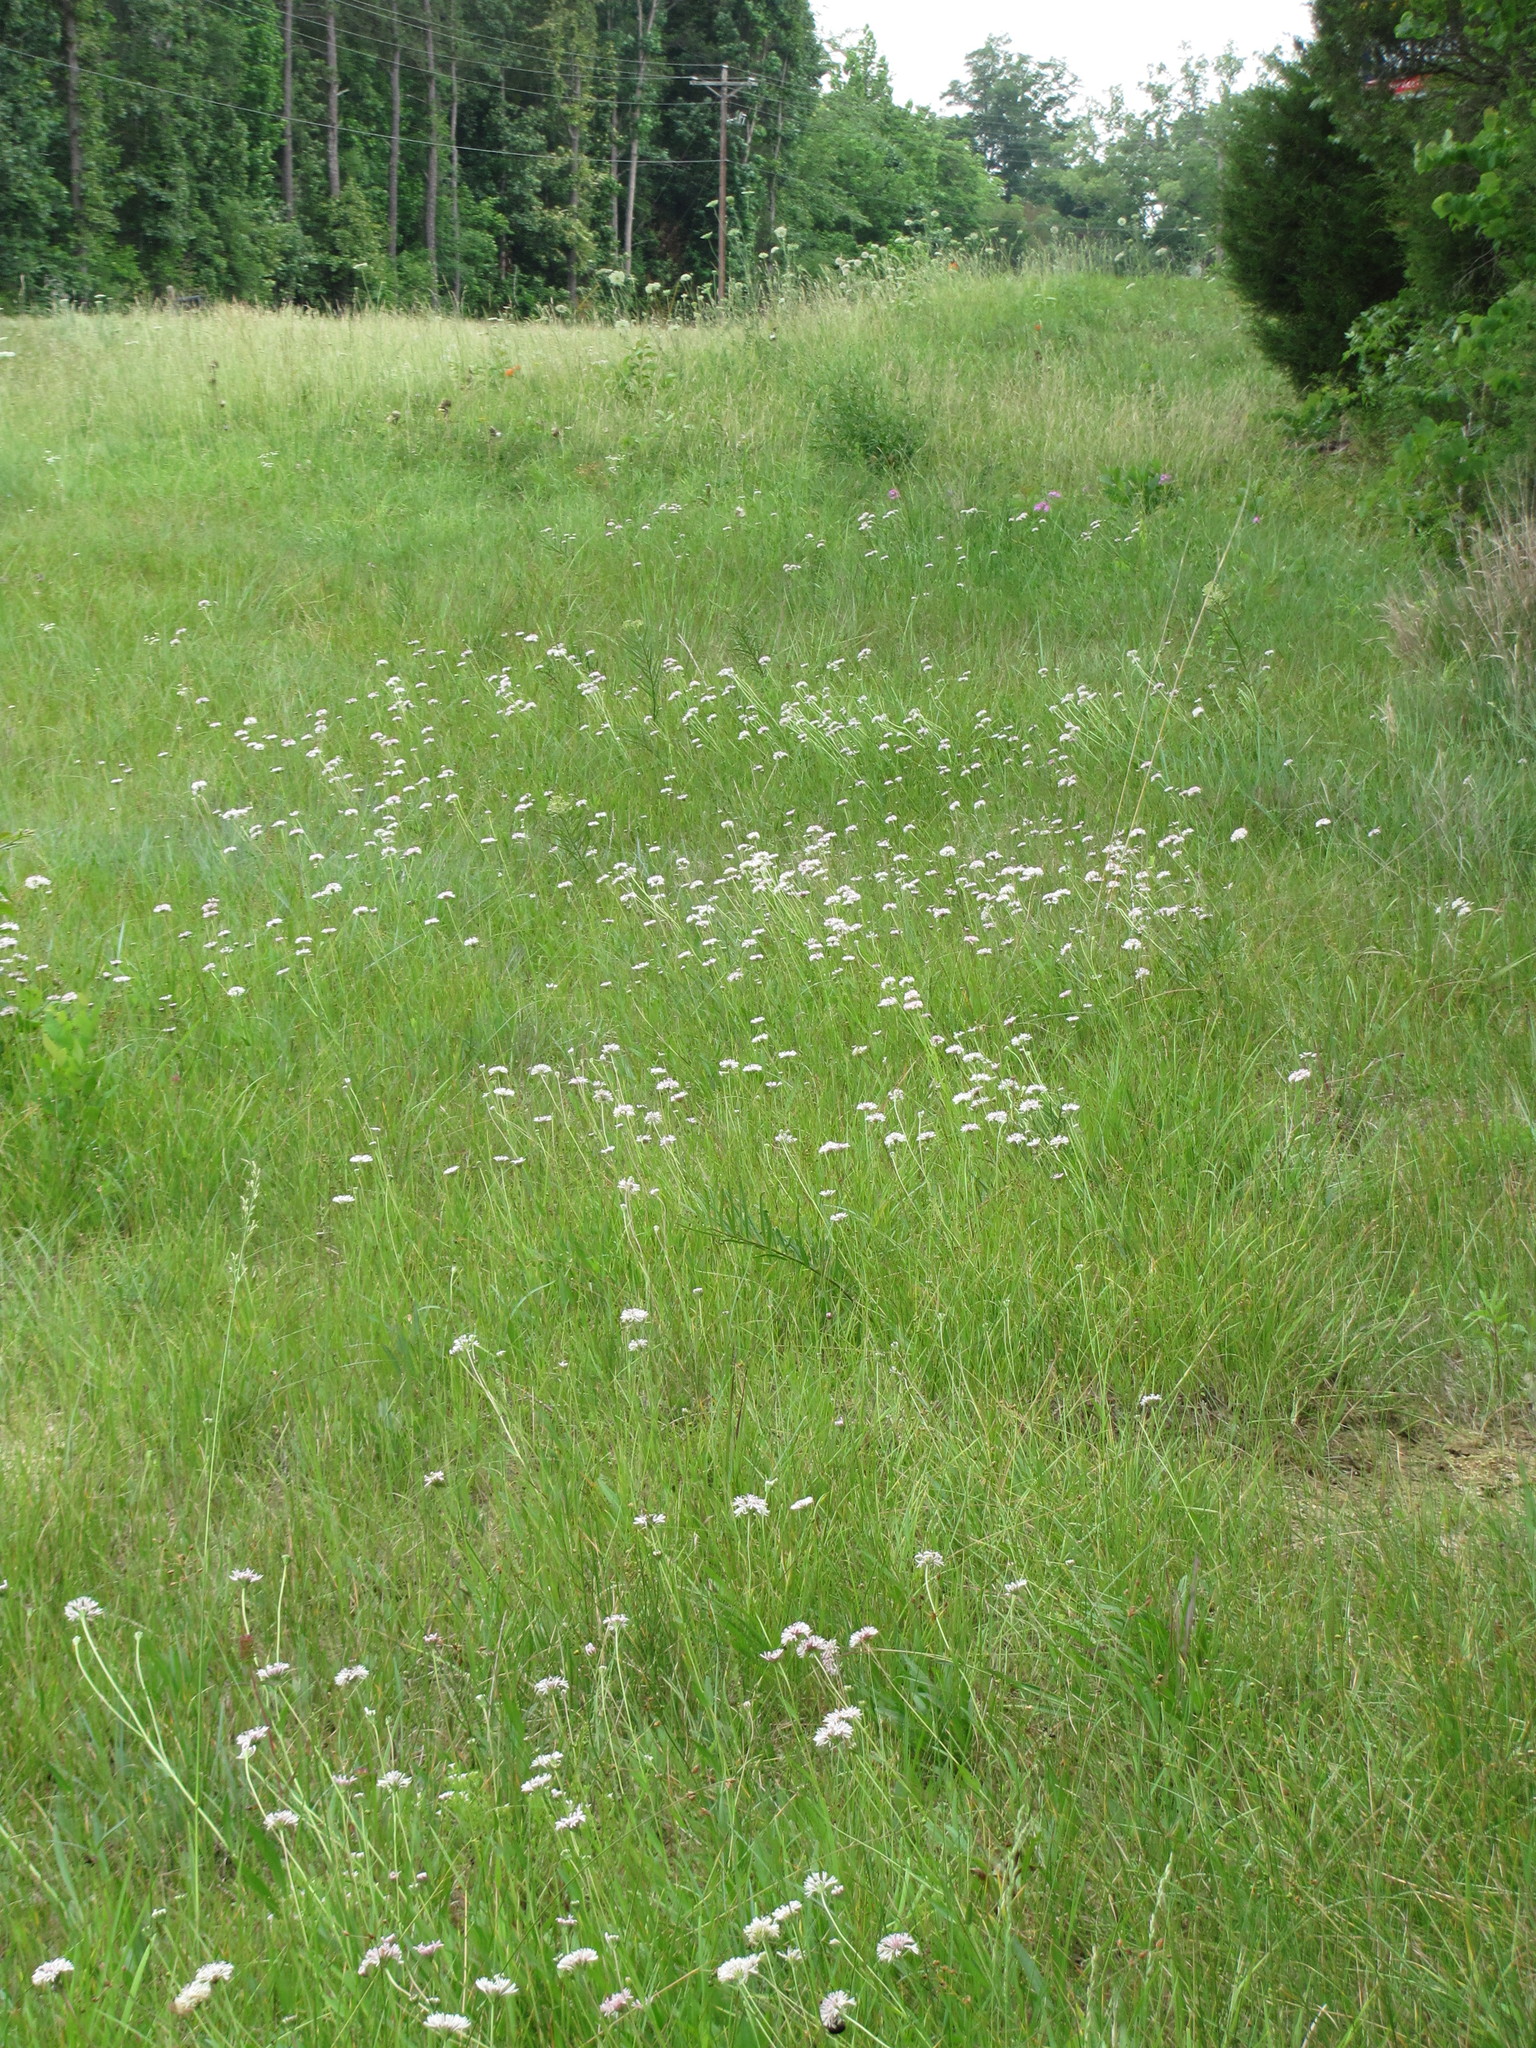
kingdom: Plantae
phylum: Tracheophyta
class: Magnoliopsida
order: Asterales
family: Asteraceae
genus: Marshallia
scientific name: Marshallia mohrii
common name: Mohr's barbara's buttons
